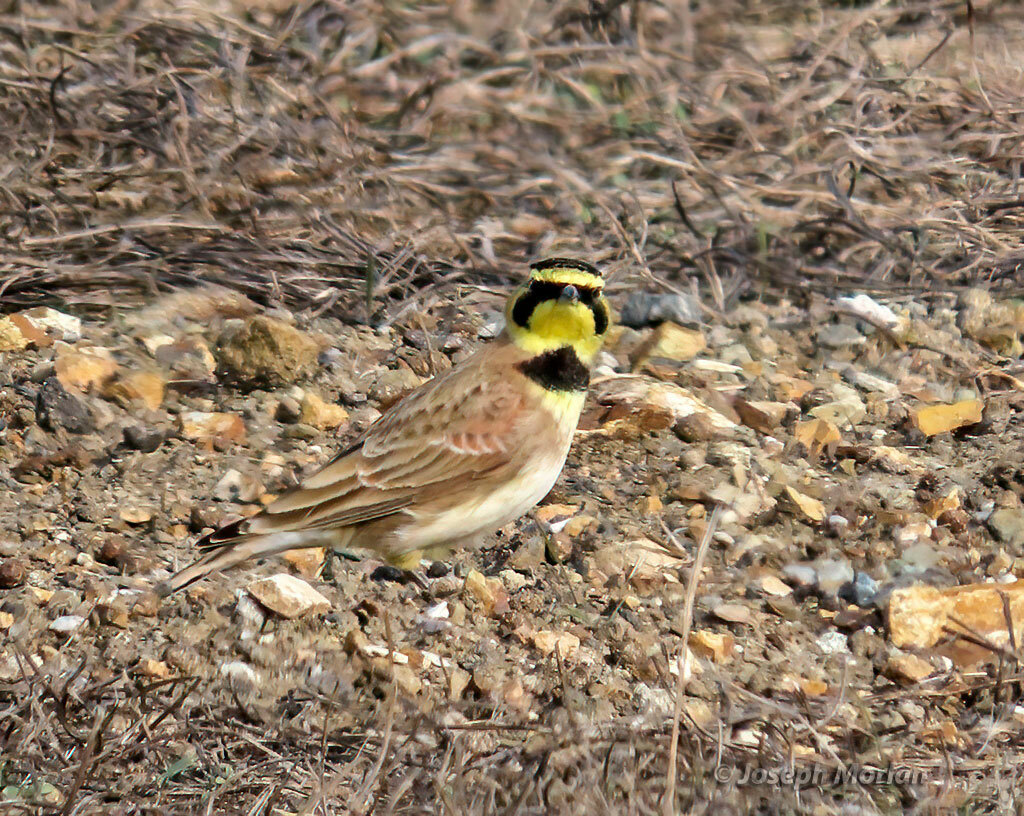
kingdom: Animalia
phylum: Chordata
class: Aves
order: Passeriformes
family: Alaudidae
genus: Eremophila
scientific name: Eremophila alpestris
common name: Horned lark
